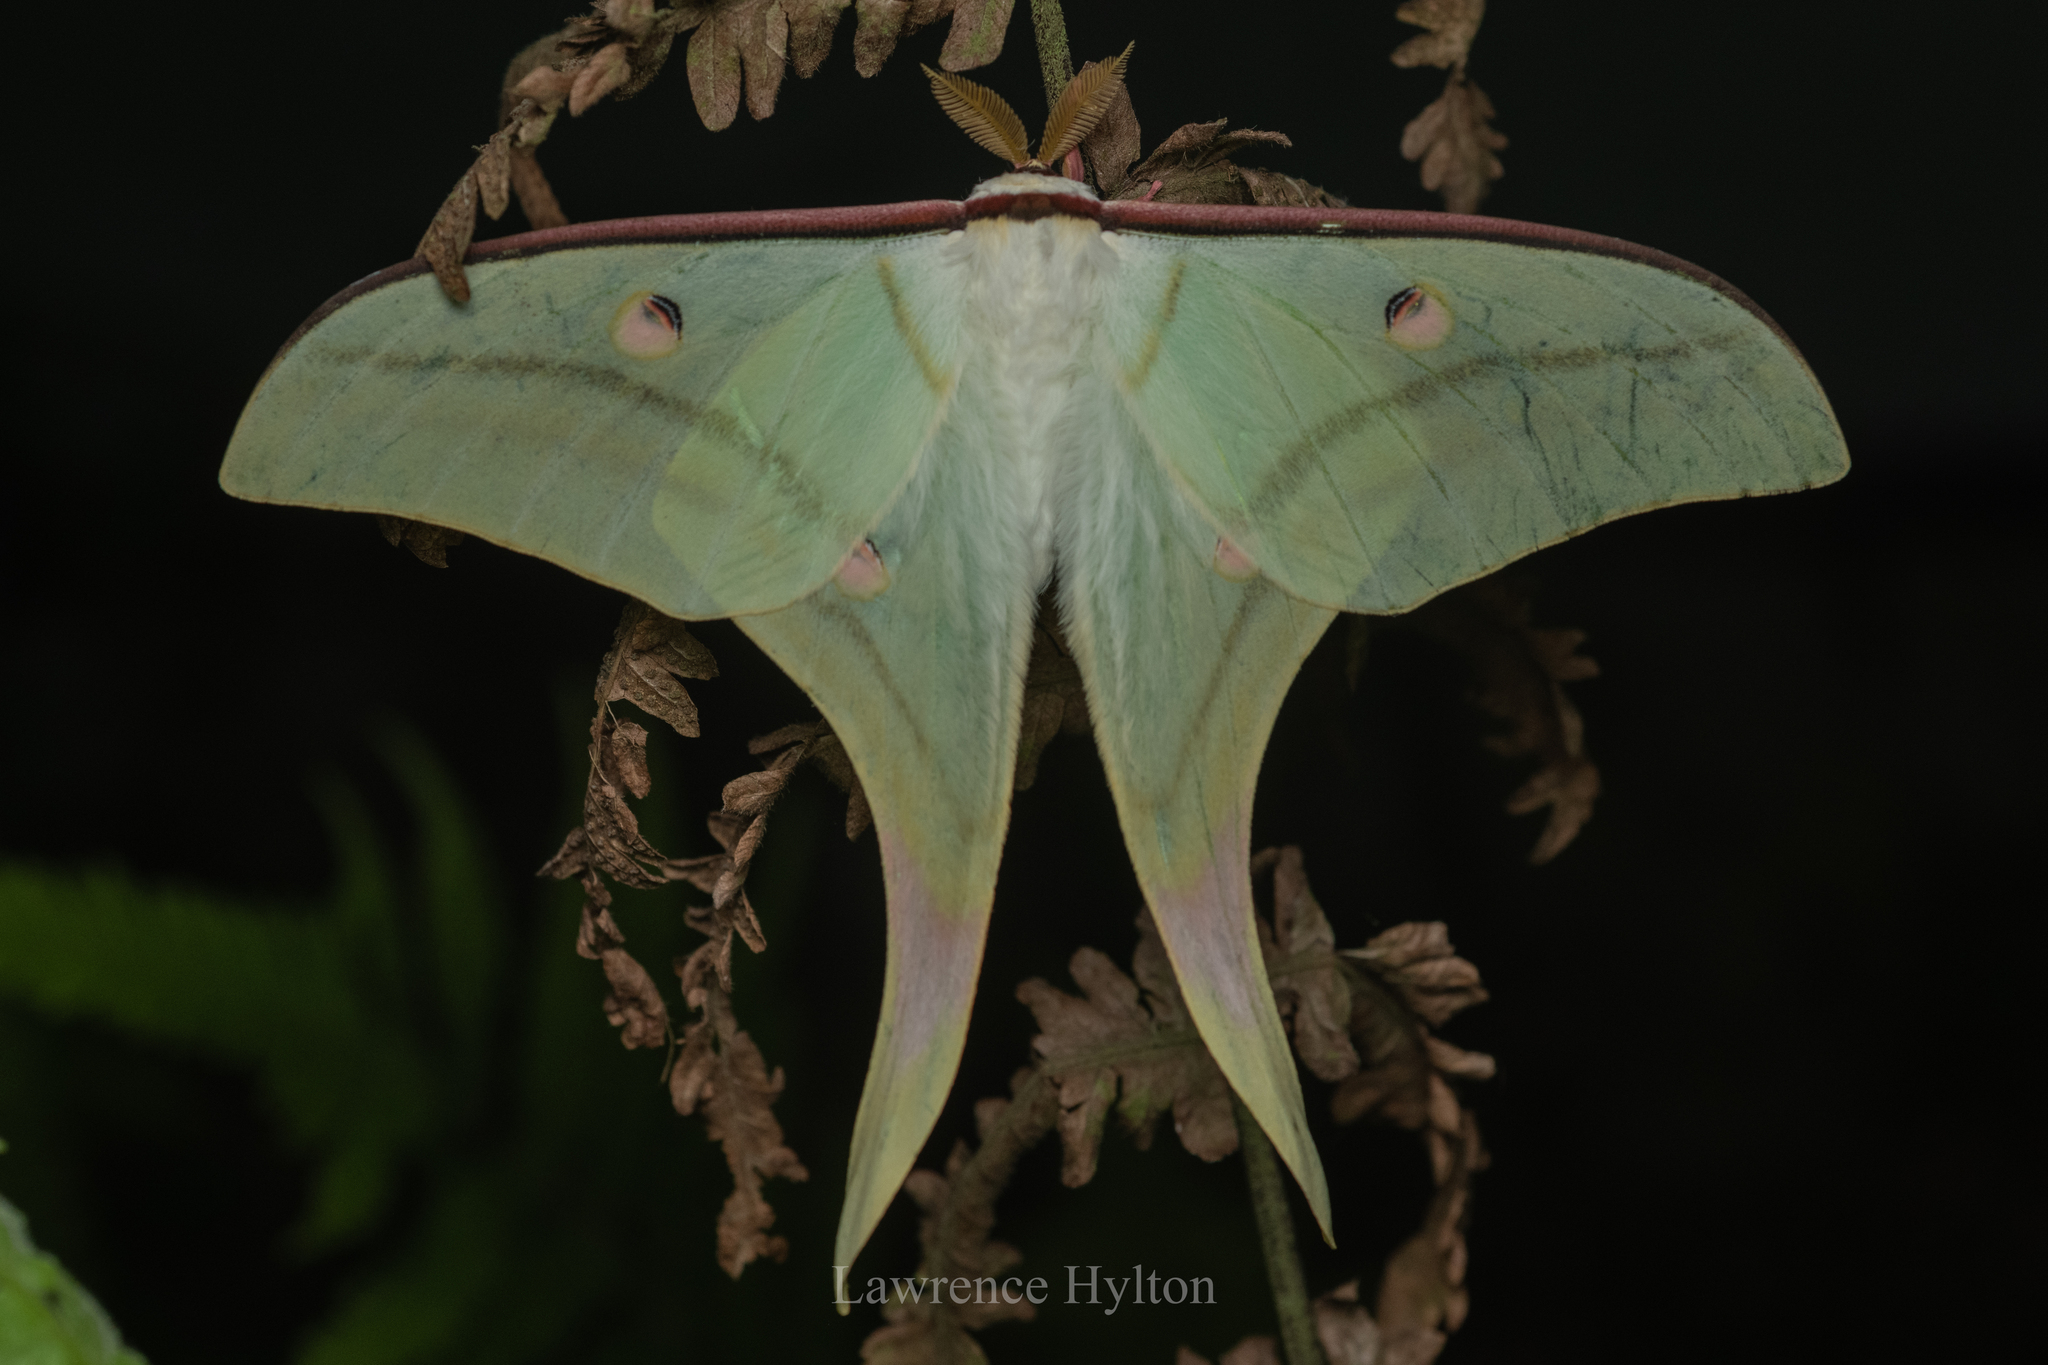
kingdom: Animalia
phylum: Arthropoda
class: Insecta
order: Lepidoptera
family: Saturniidae
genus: Actias
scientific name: Actias ningpoana
